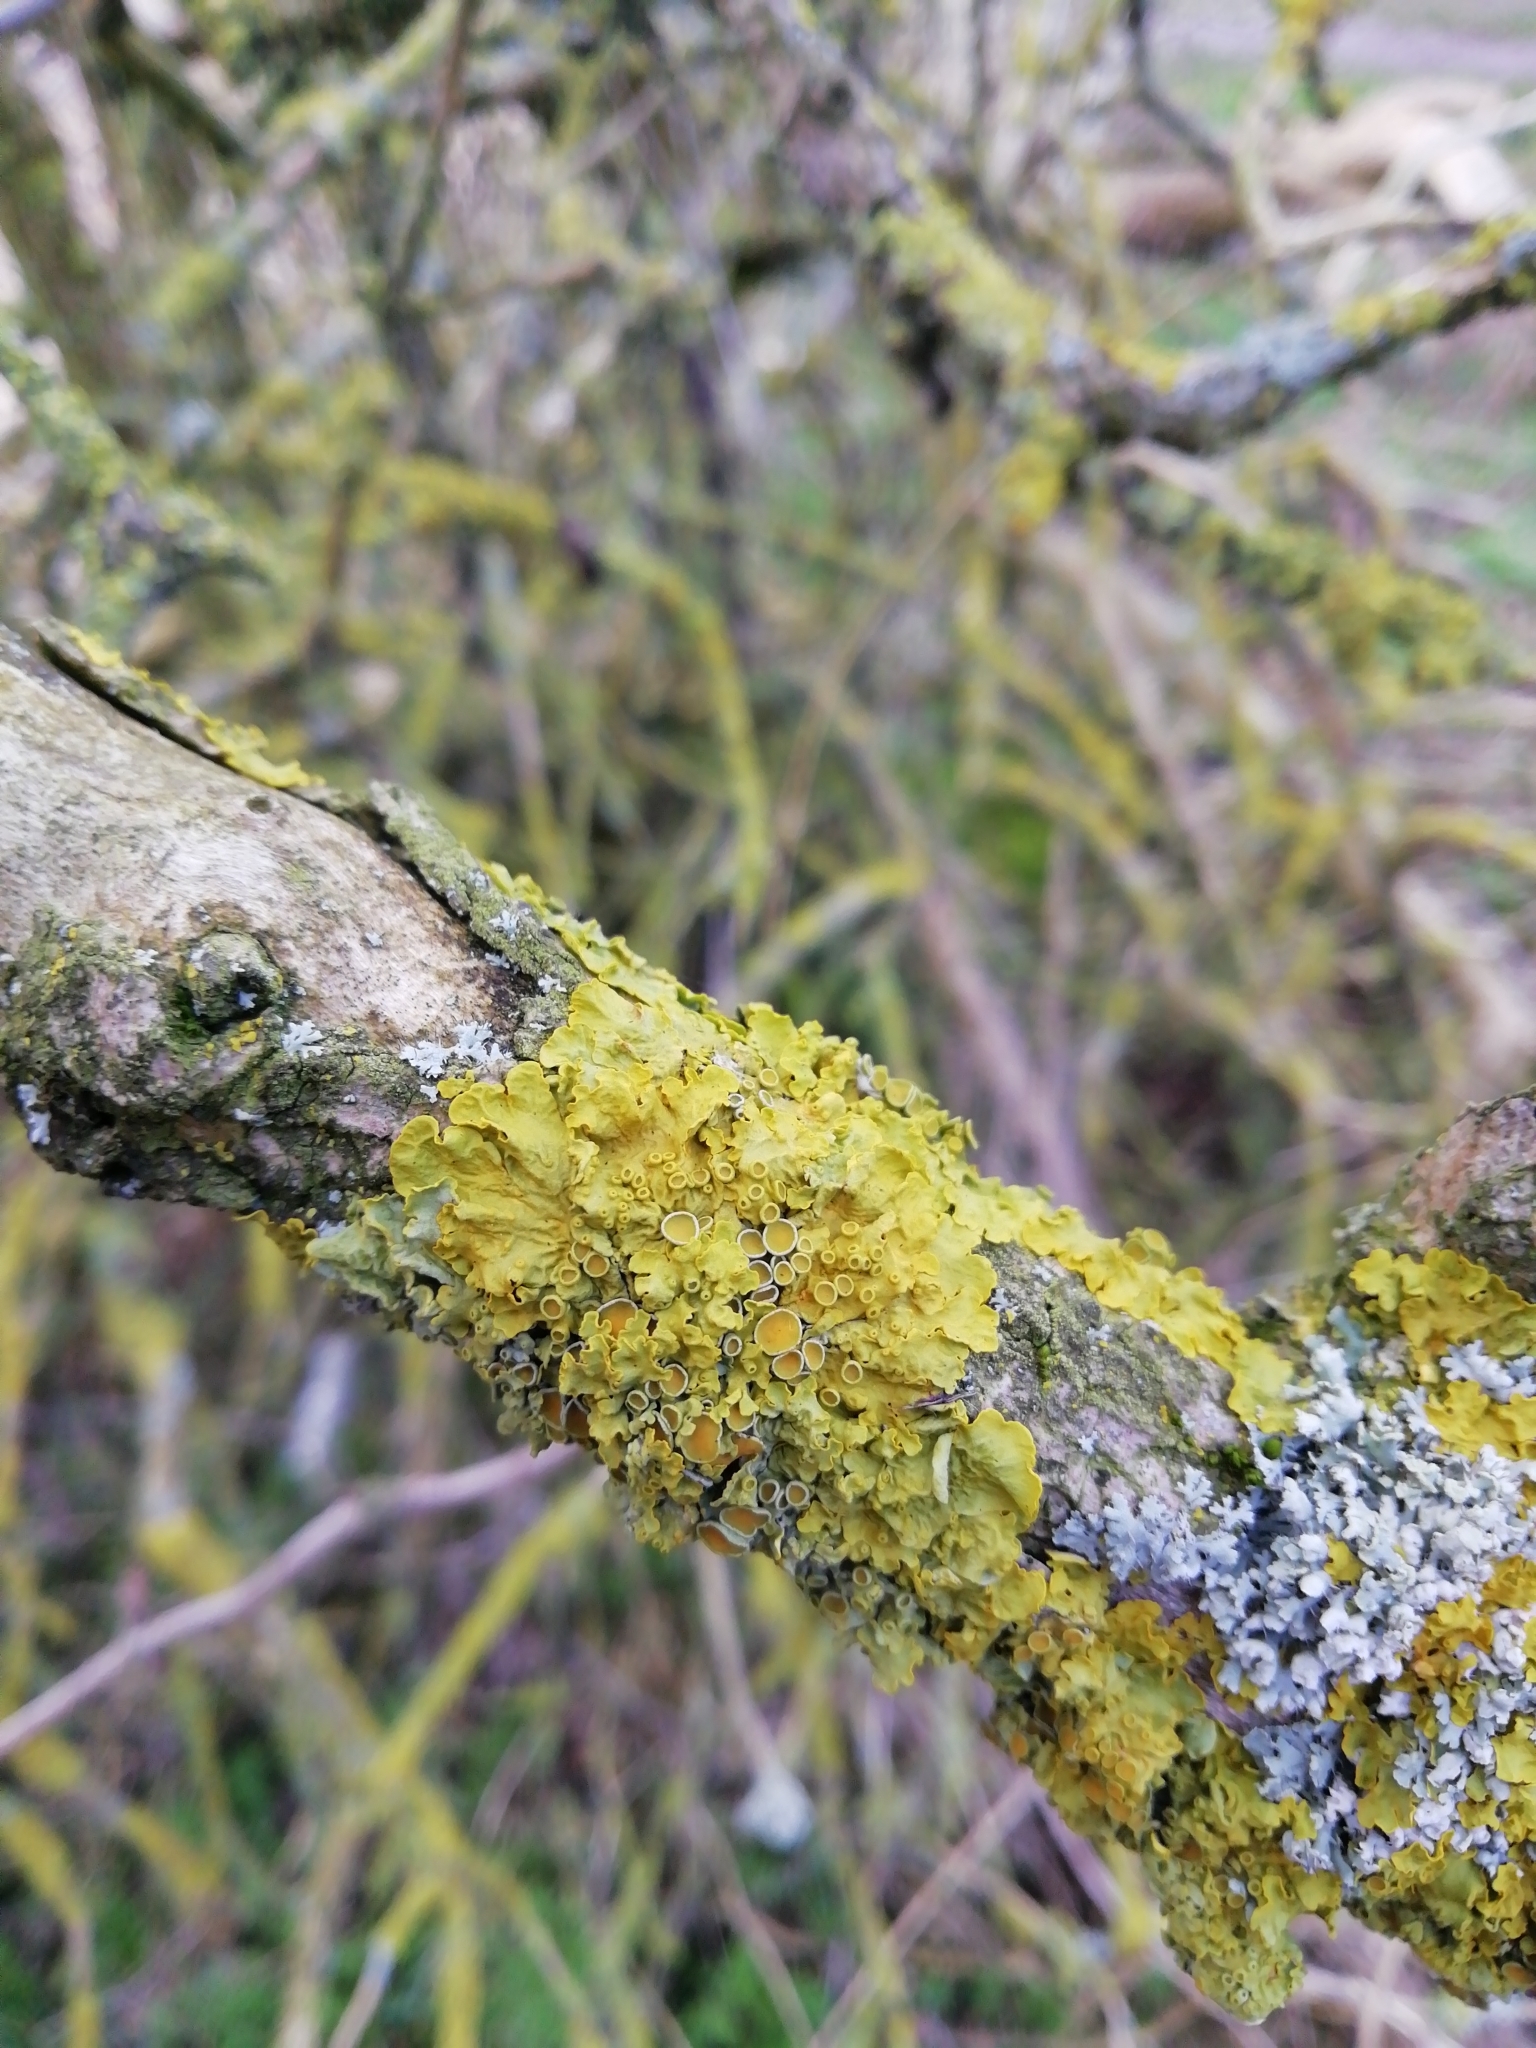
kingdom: Fungi
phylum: Ascomycota
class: Lecanoromycetes
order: Teloschistales
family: Teloschistaceae
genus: Xanthoria
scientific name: Xanthoria parietina
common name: Common orange lichen
